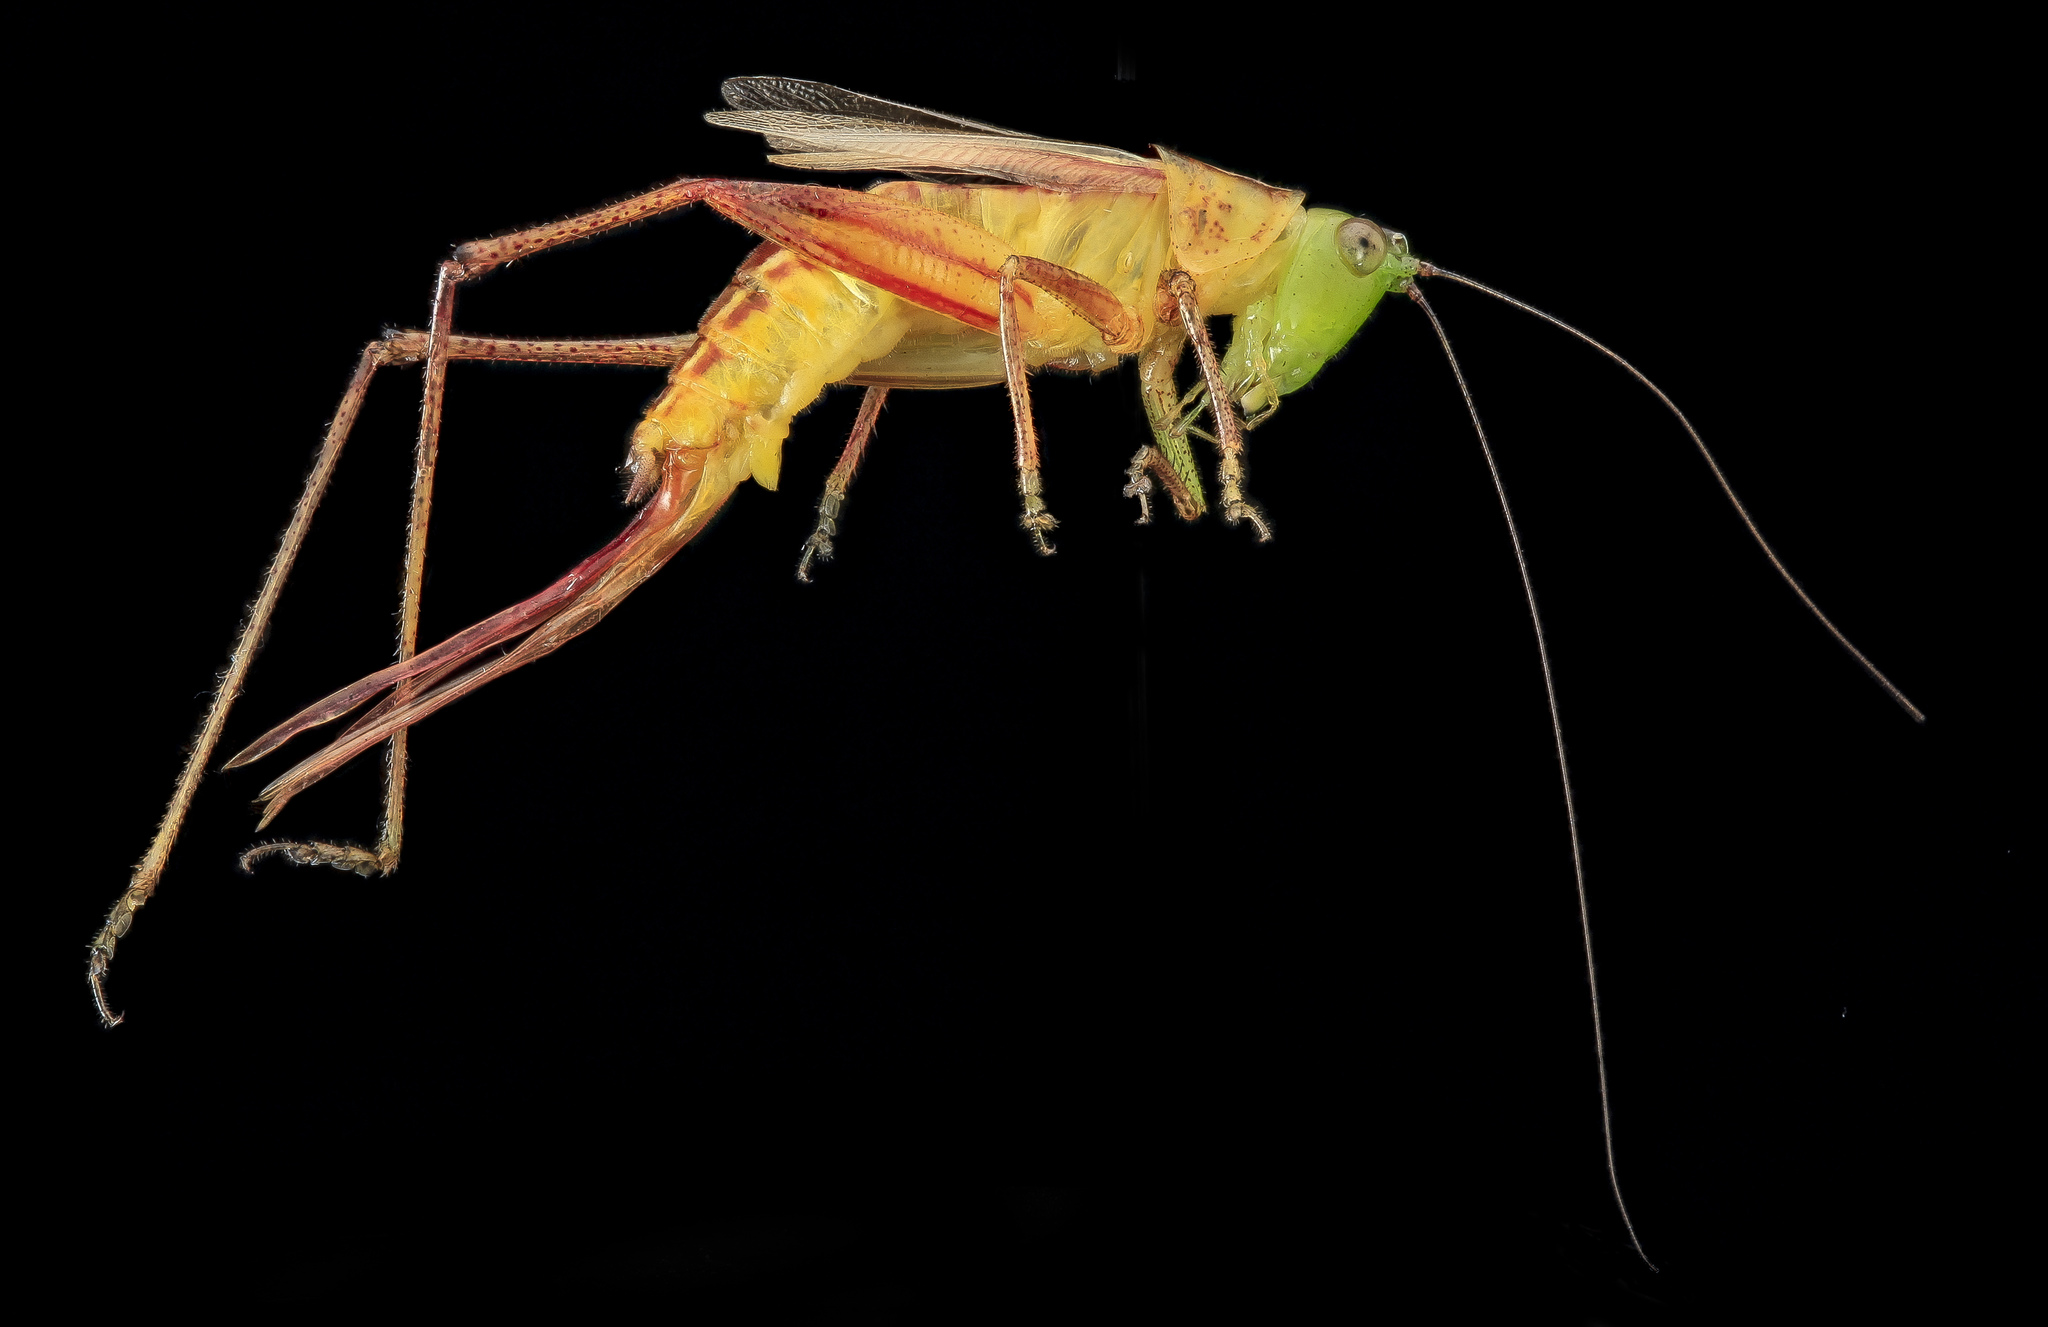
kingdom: Animalia
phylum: Arthropoda
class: Insecta
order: Orthoptera
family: Tettigoniidae
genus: Conocephalus
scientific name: Conocephalus brevipennis
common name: Short-winged meadow katydid
